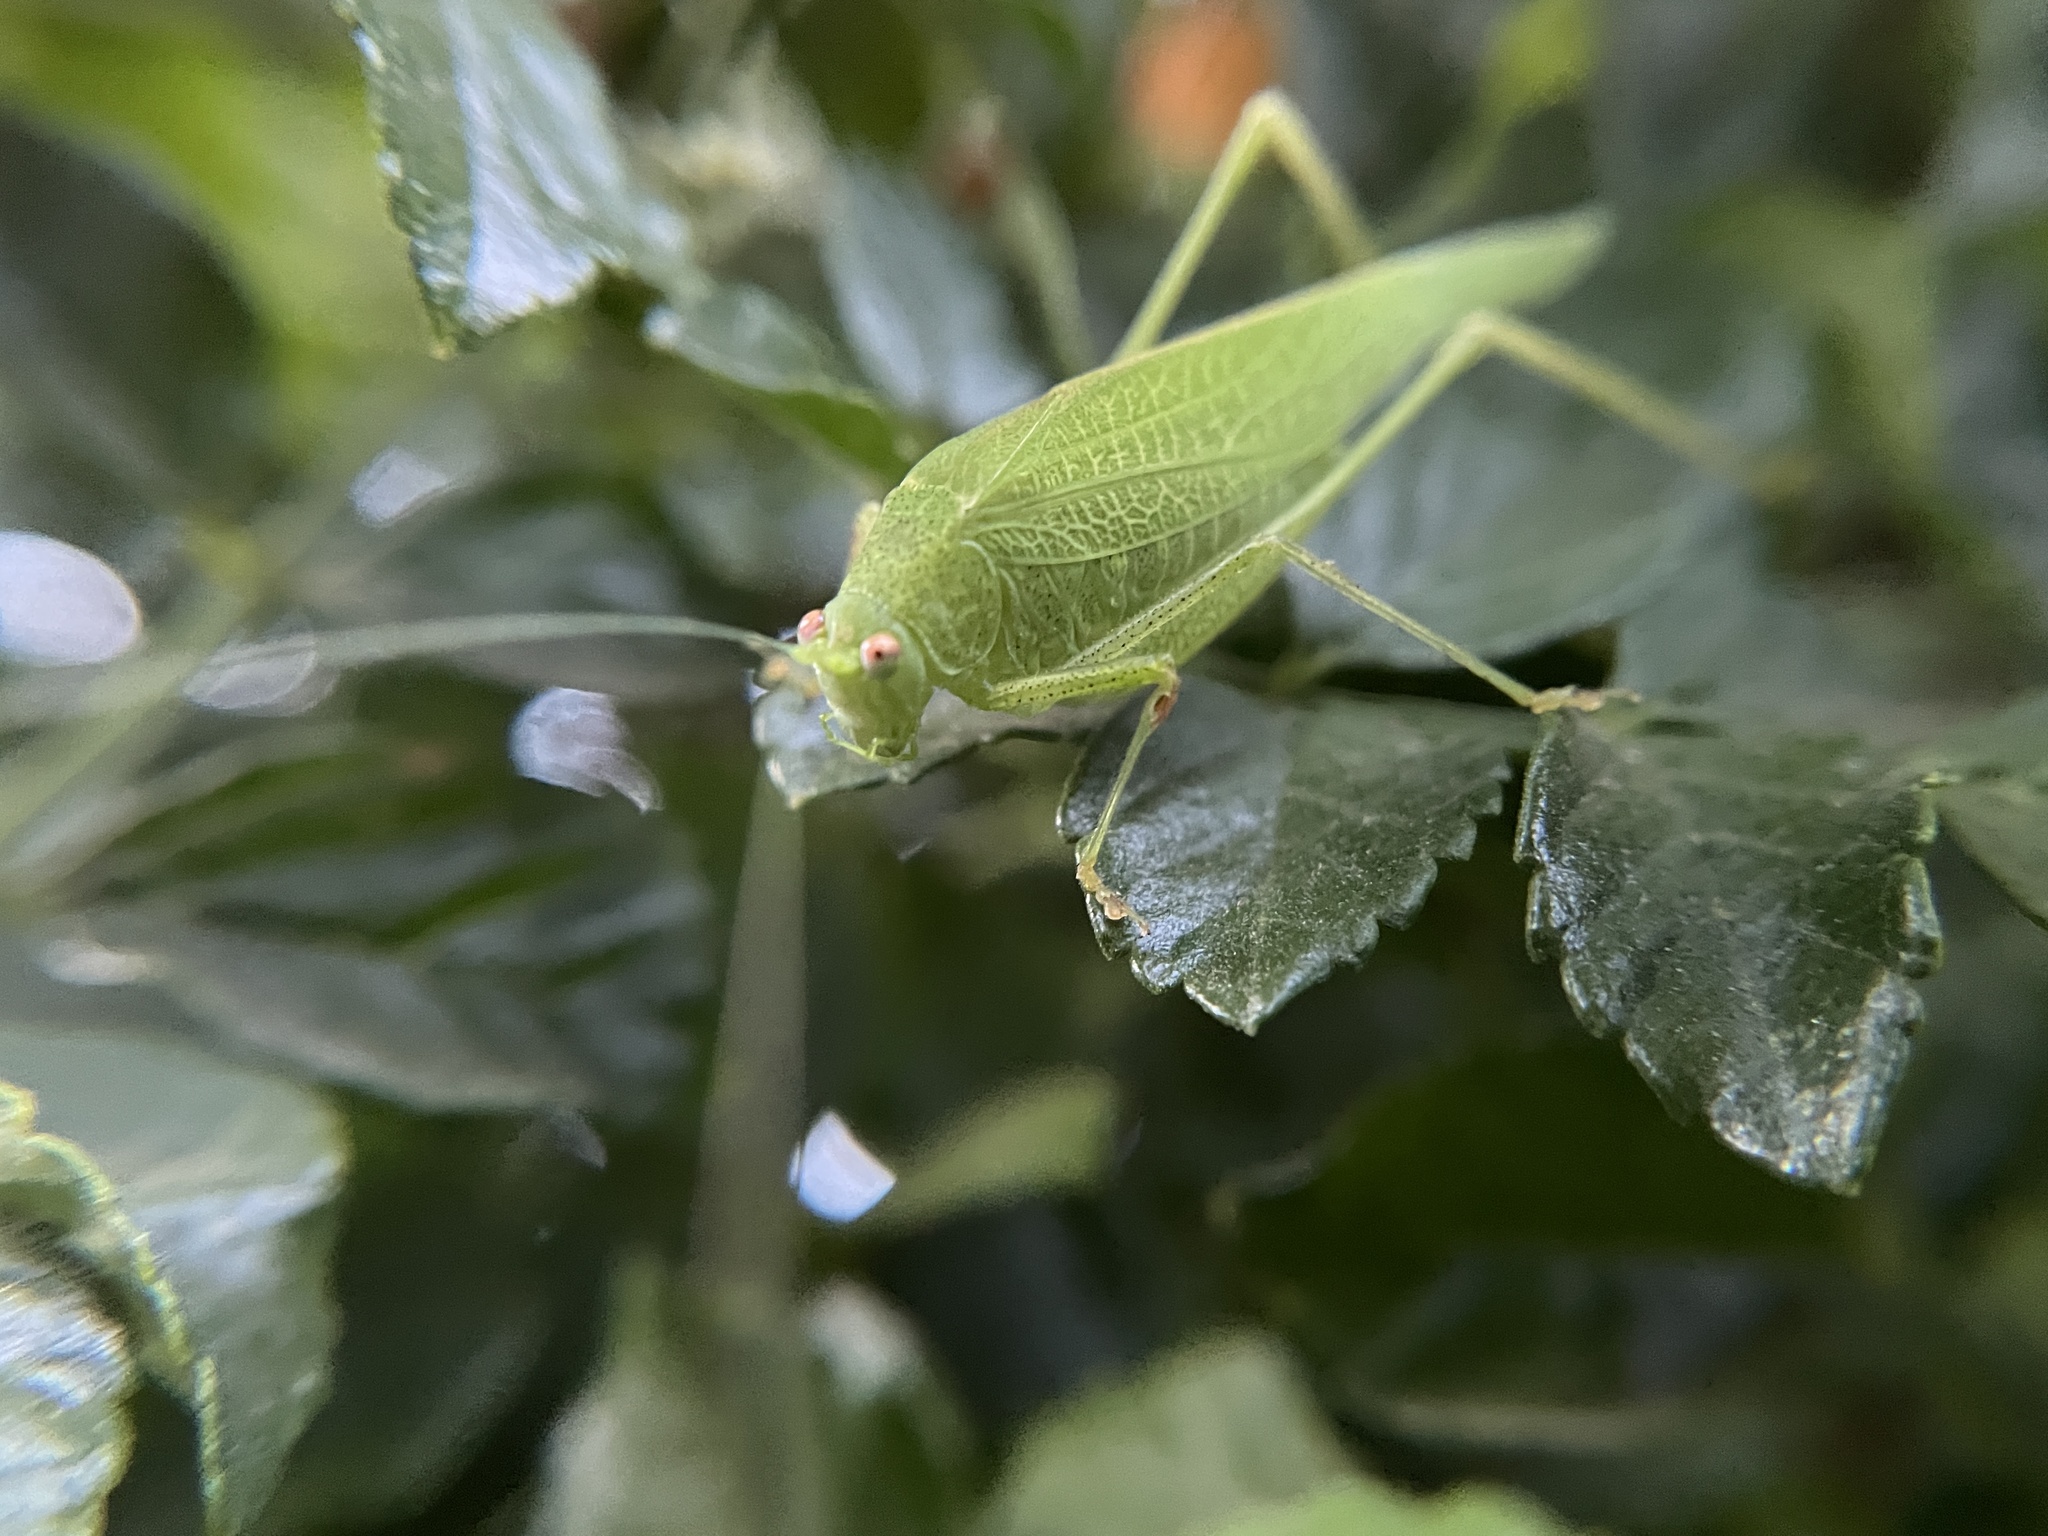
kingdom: Animalia
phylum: Arthropoda
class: Insecta
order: Orthoptera
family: Tettigoniidae
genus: Phaneroptera
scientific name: Phaneroptera nana
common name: Southern sickle bush-cricket
